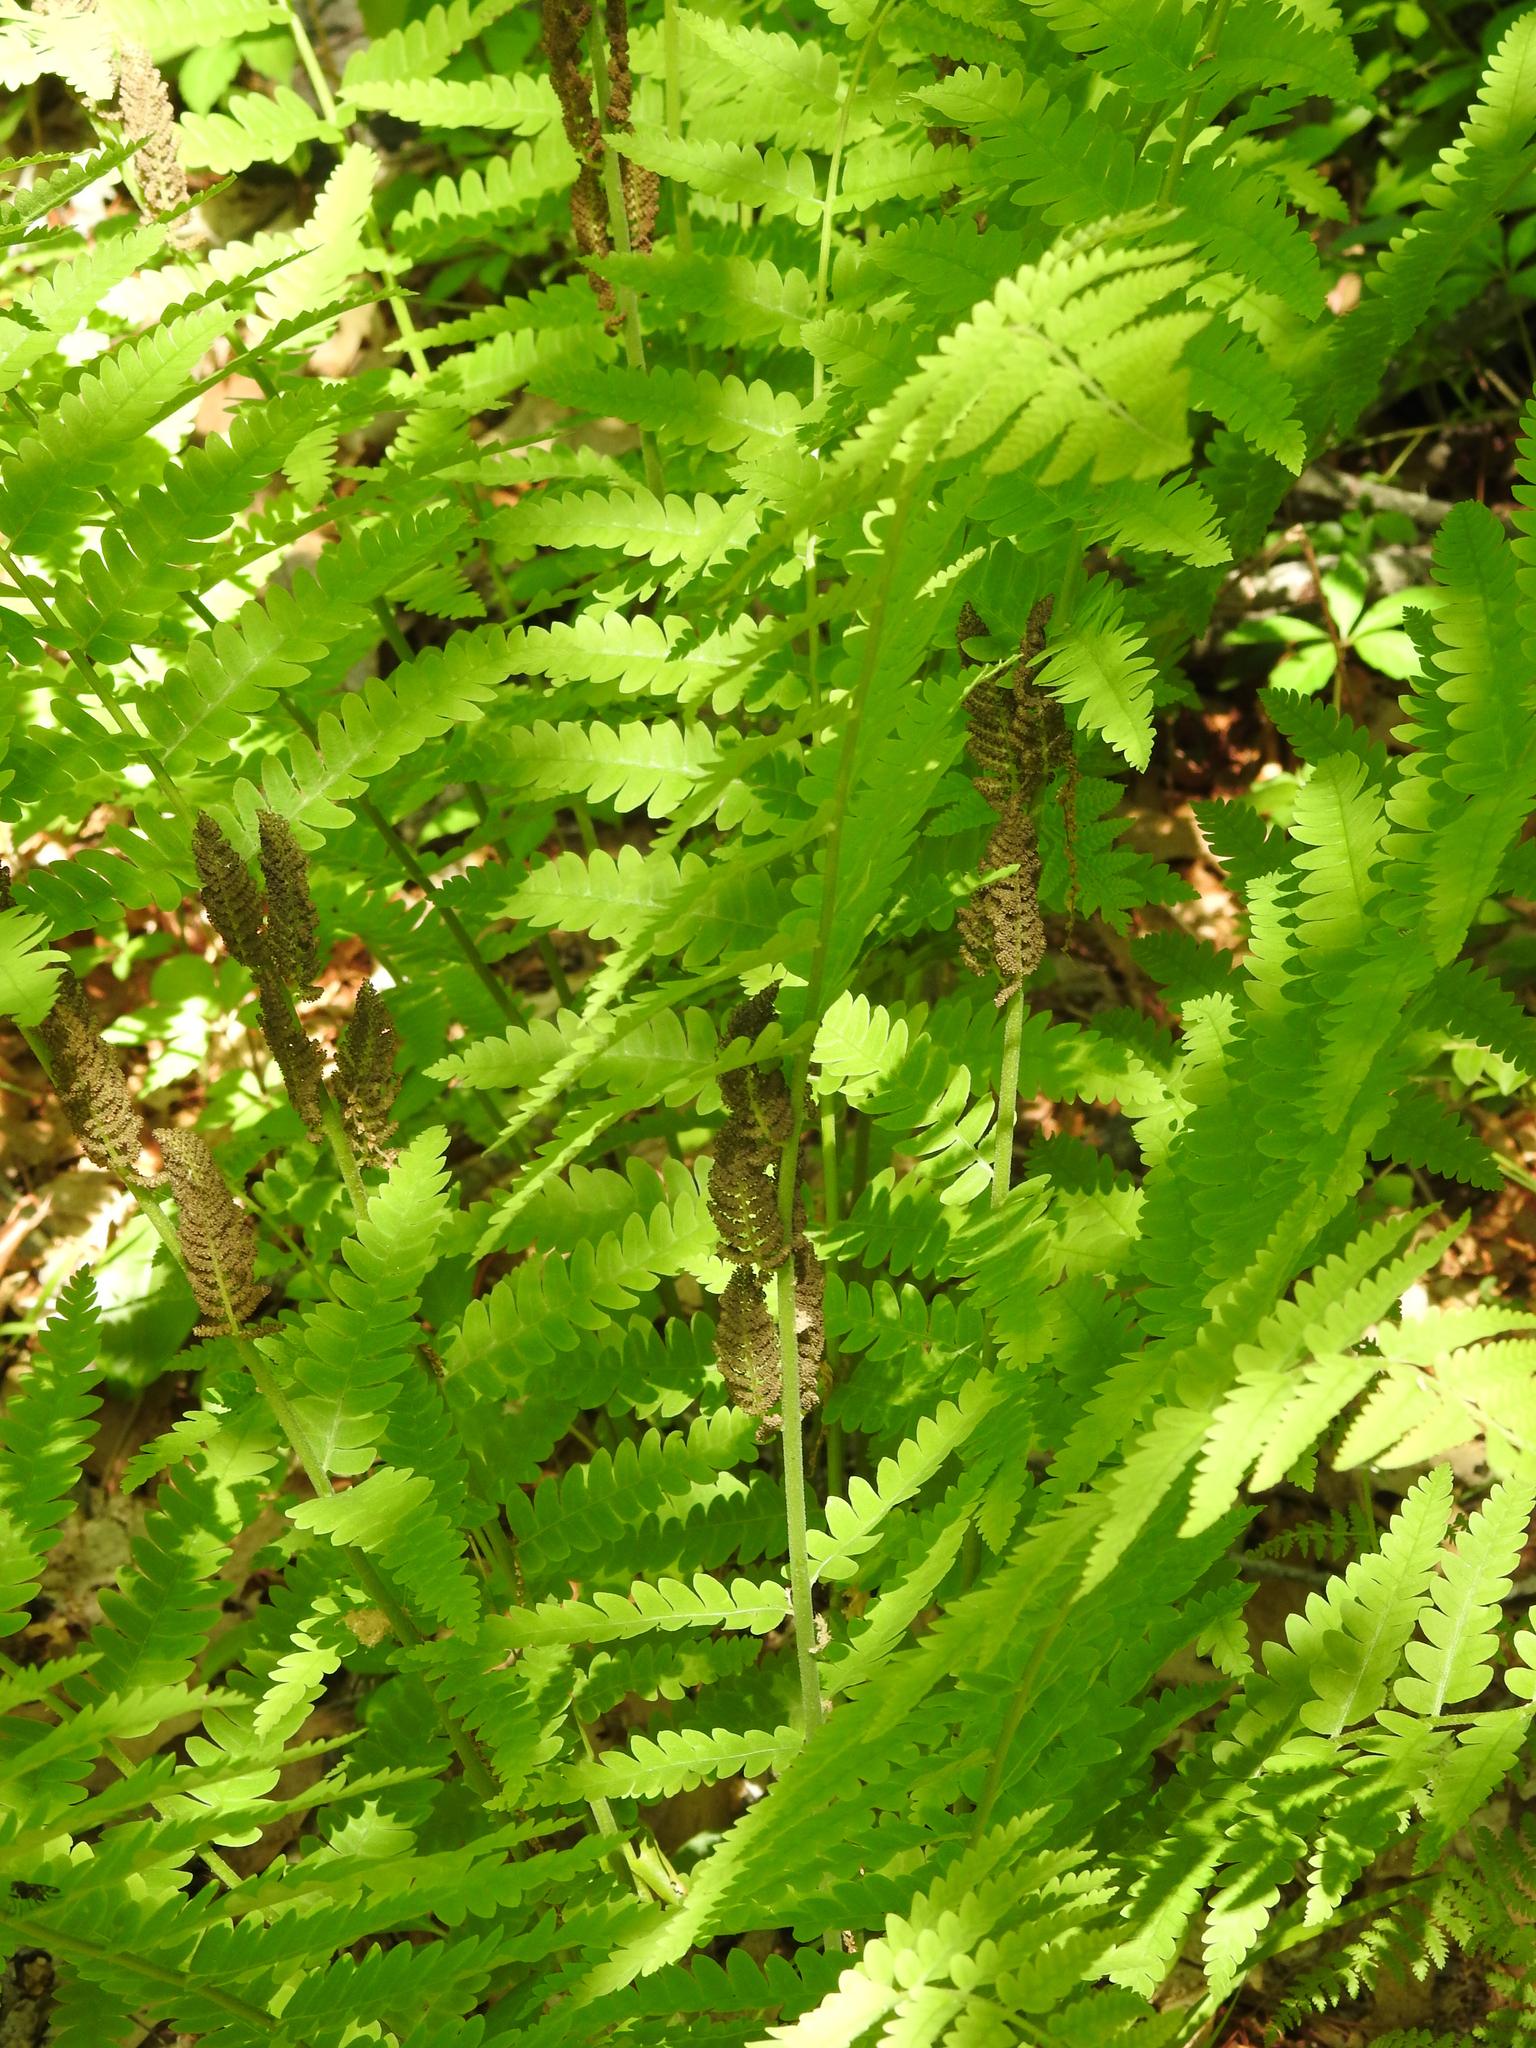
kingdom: Plantae
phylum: Tracheophyta
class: Polypodiopsida
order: Osmundales
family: Osmundaceae
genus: Claytosmunda
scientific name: Claytosmunda claytoniana
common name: Clayton's fern
